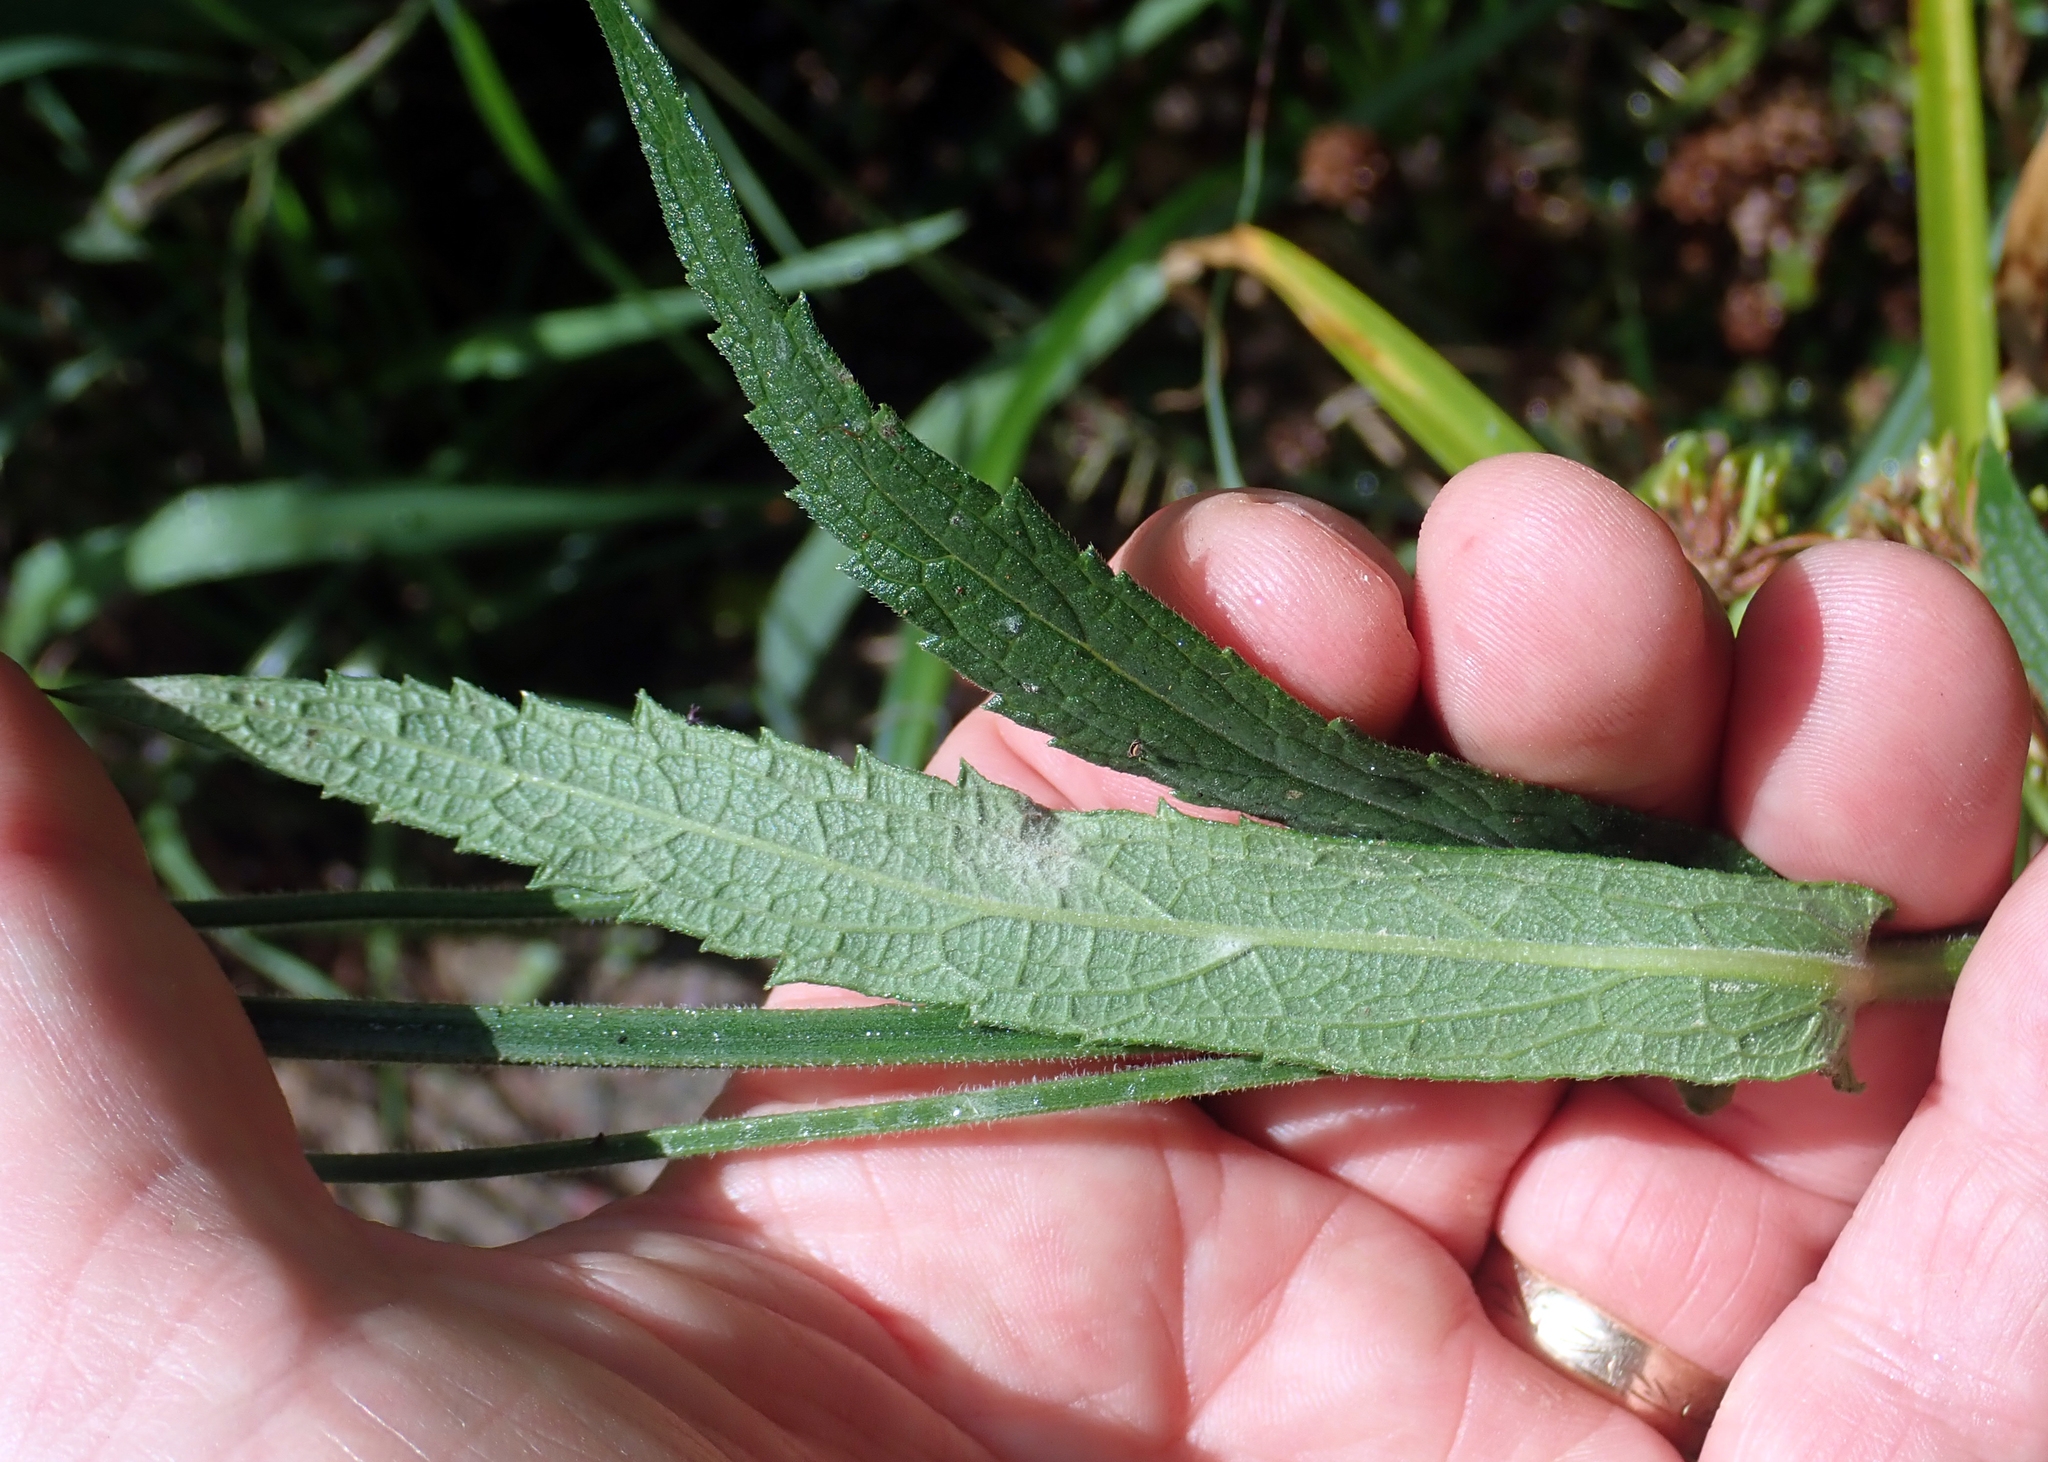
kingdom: Plantae
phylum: Tracheophyta
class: Magnoliopsida
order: Lamiales
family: Verbenaceae
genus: Verbena
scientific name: Verbena bonariensis
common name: Purpletop vervain
